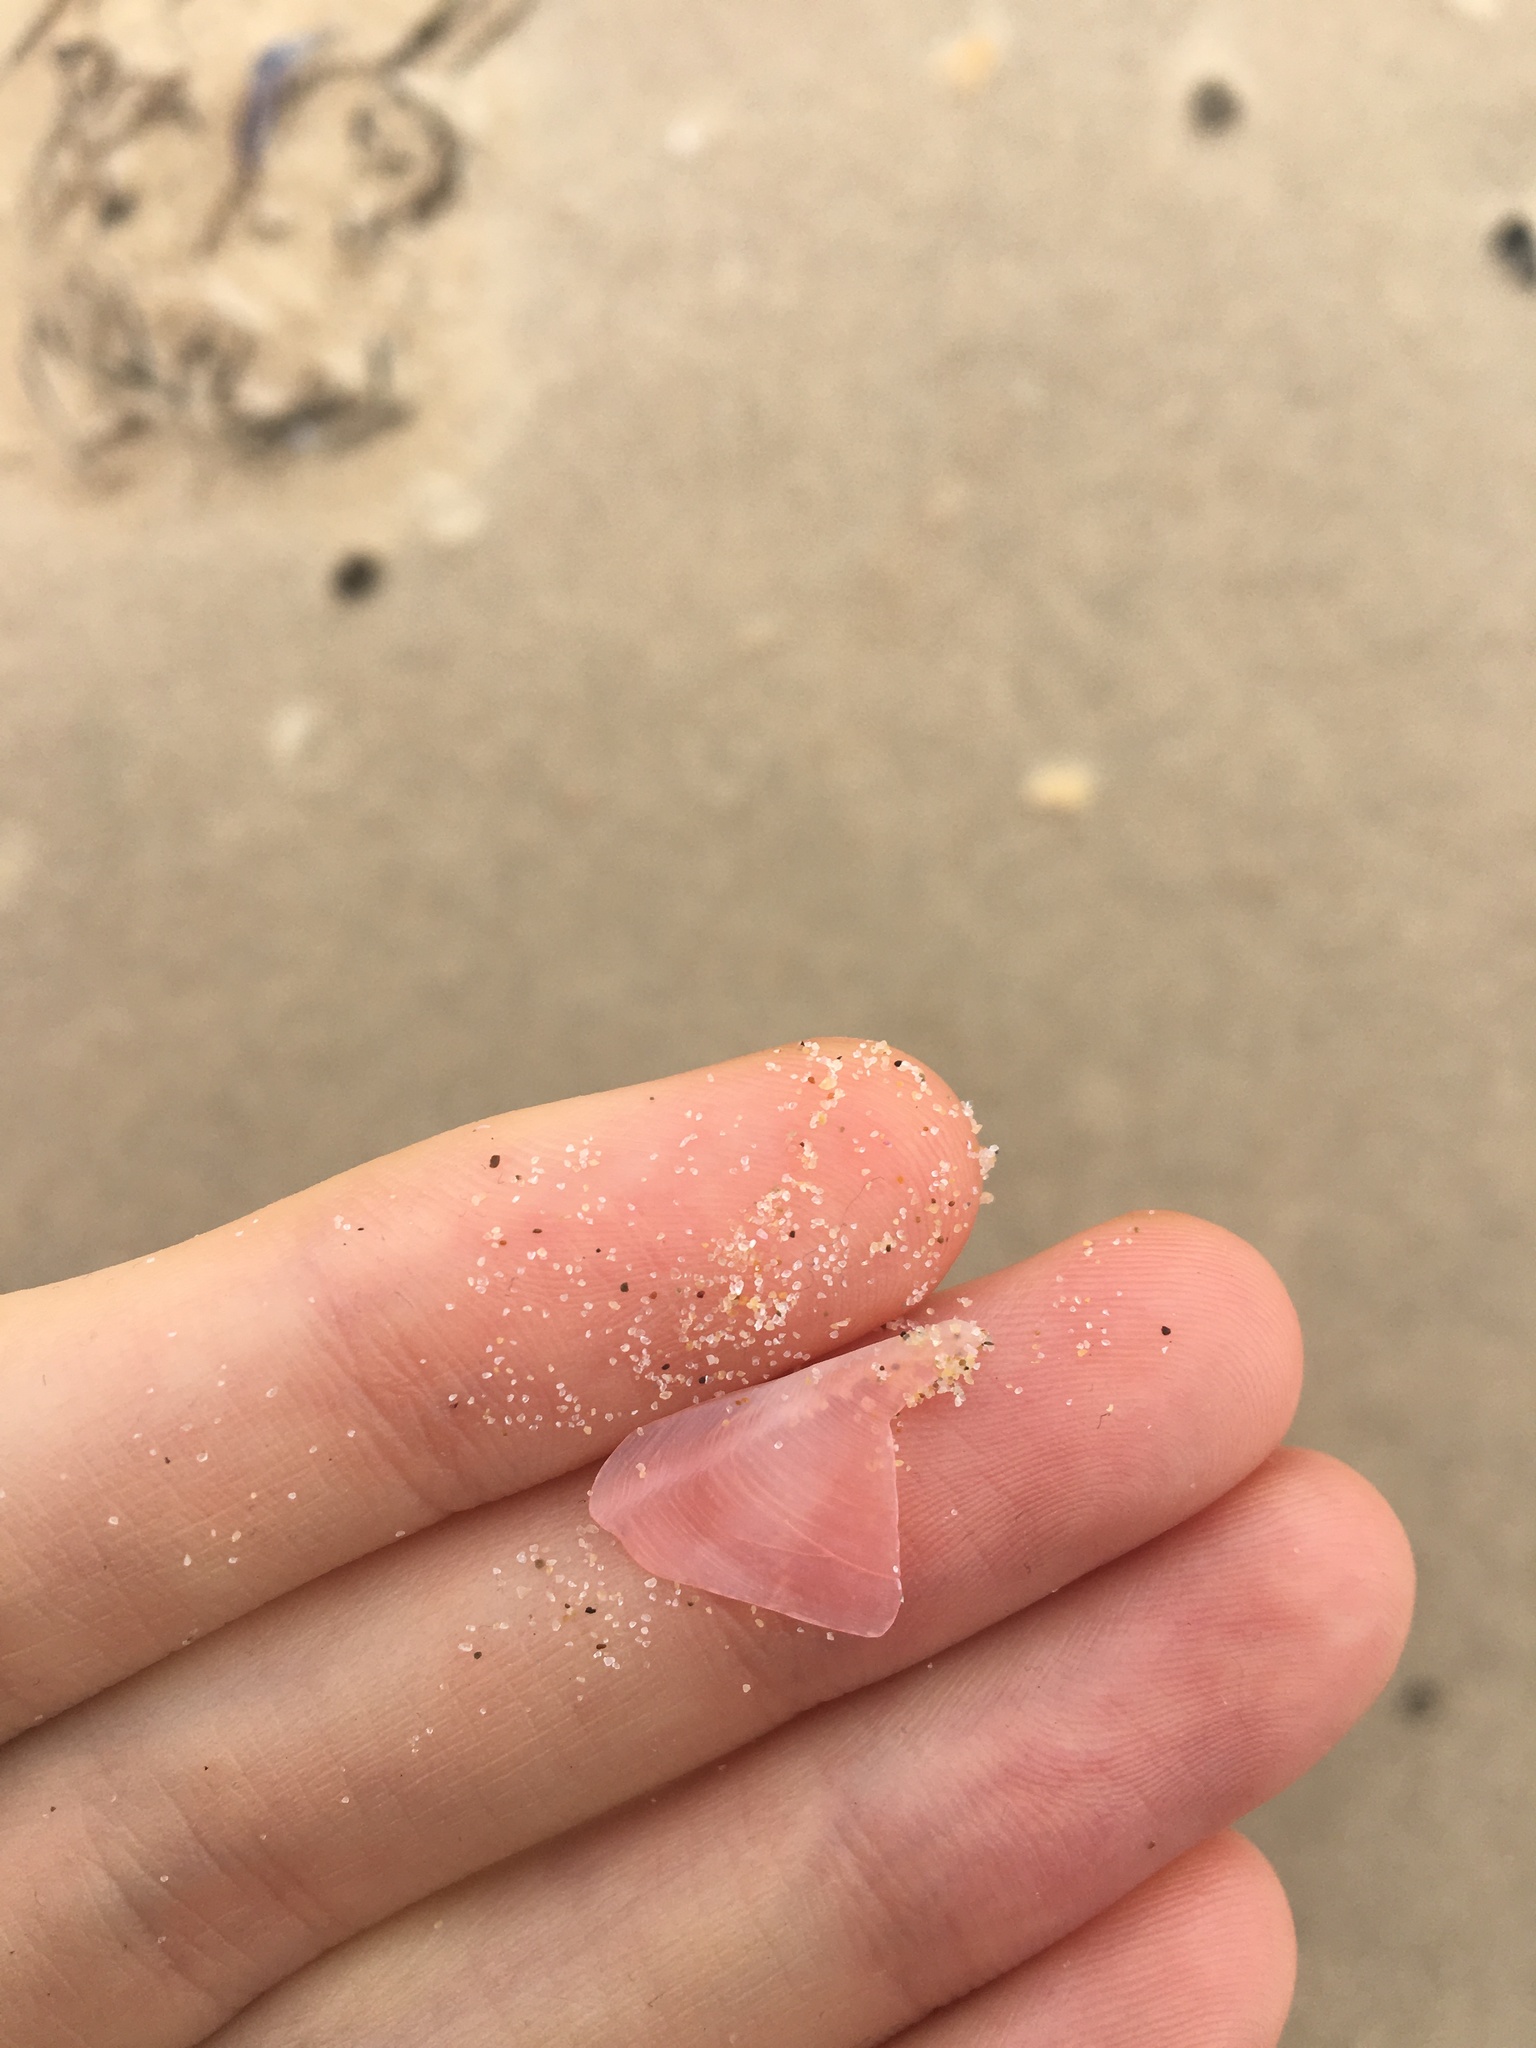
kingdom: Animalia
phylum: Mollusca
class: Bivalvia
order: Cardiida
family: Tellinidae
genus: Tellinota
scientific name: Tellinota albinella
